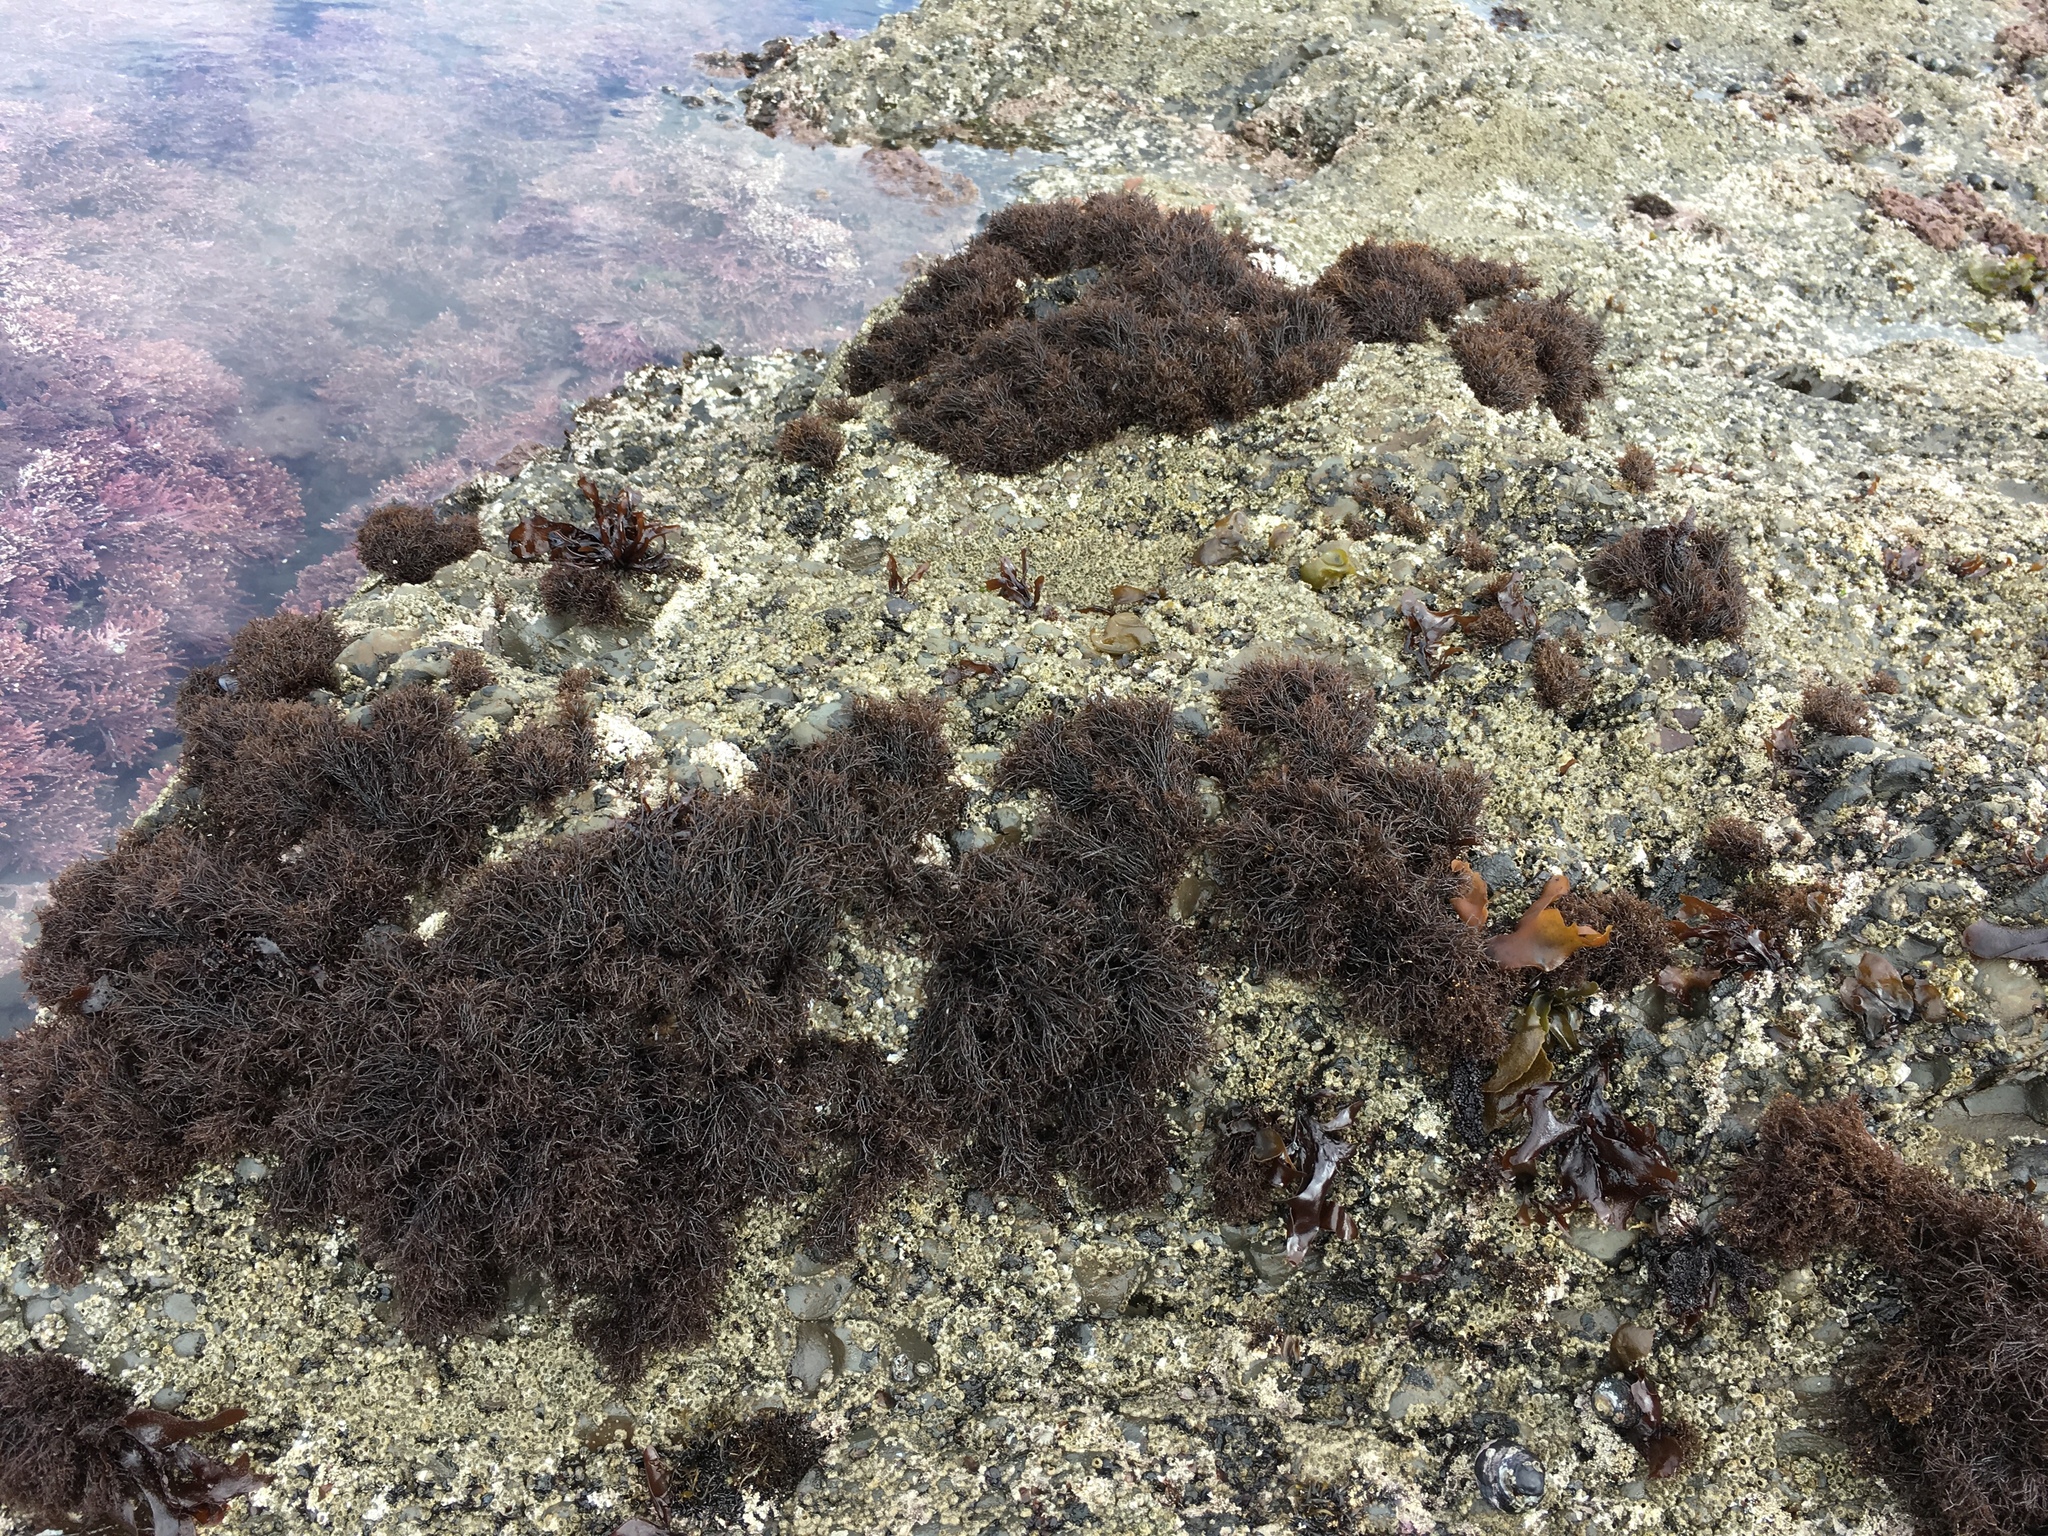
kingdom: Plantae
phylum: Rhodophyta
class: Florideophyceae
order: Gigartinales
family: Endocladiaceae
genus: Endocladia
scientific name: Endocladia muricata
